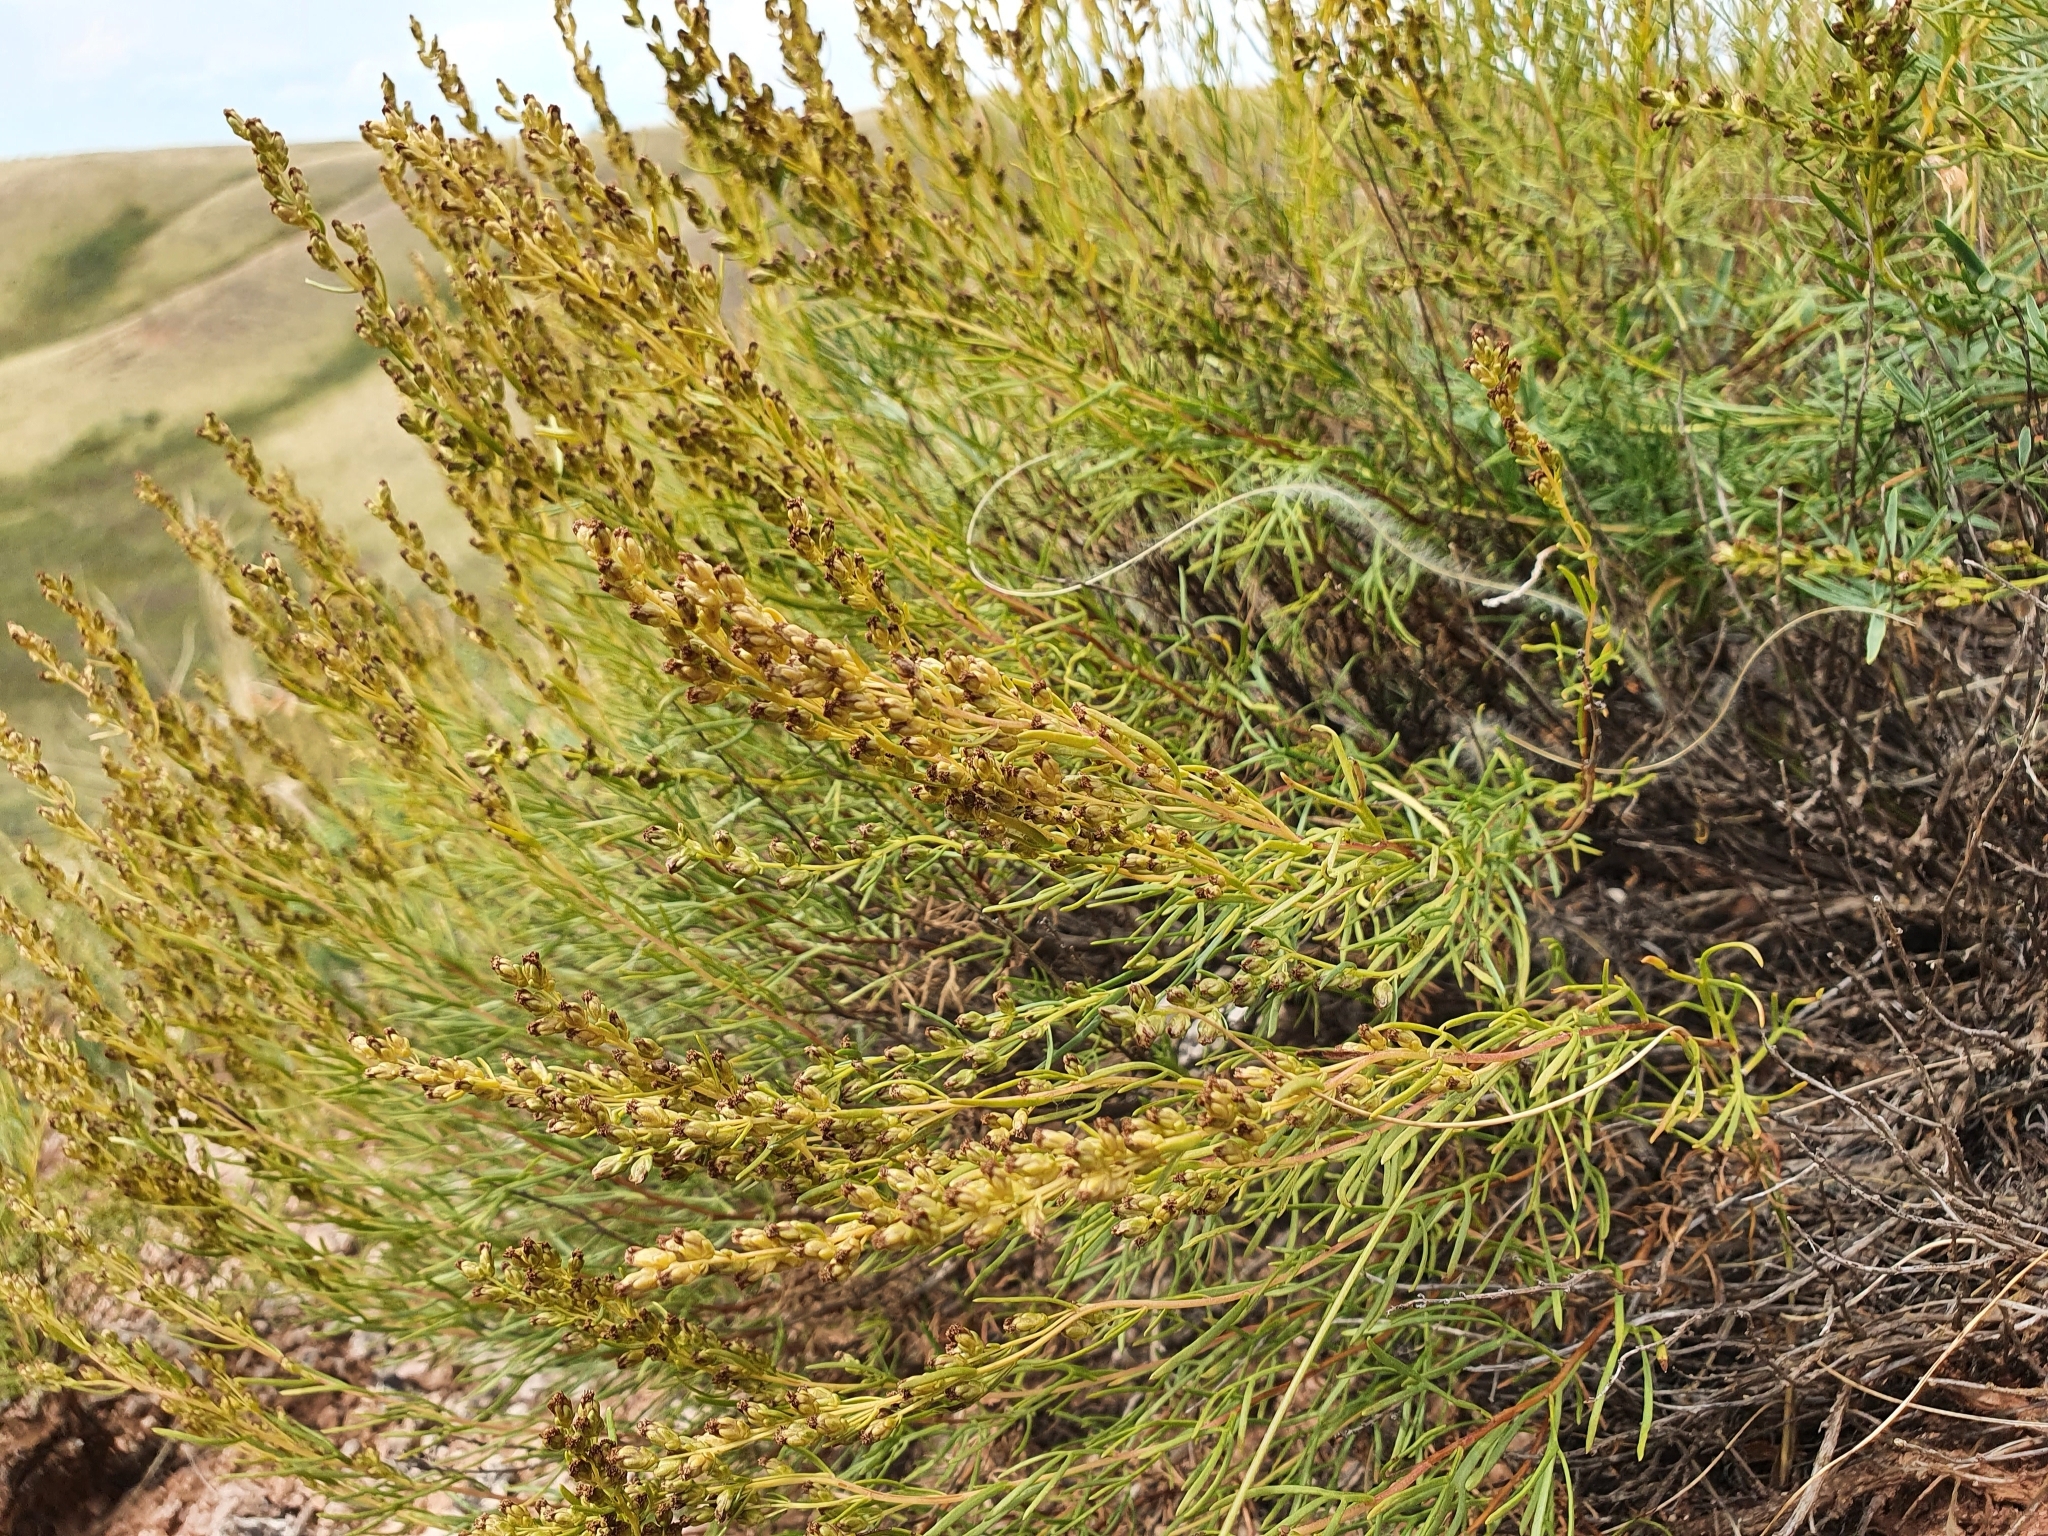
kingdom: Plantae
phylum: Tracheophyta
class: Magnoliopsida
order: Asterales
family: Asteraceae
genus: Artemisia
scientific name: Artemisia salsoloides
